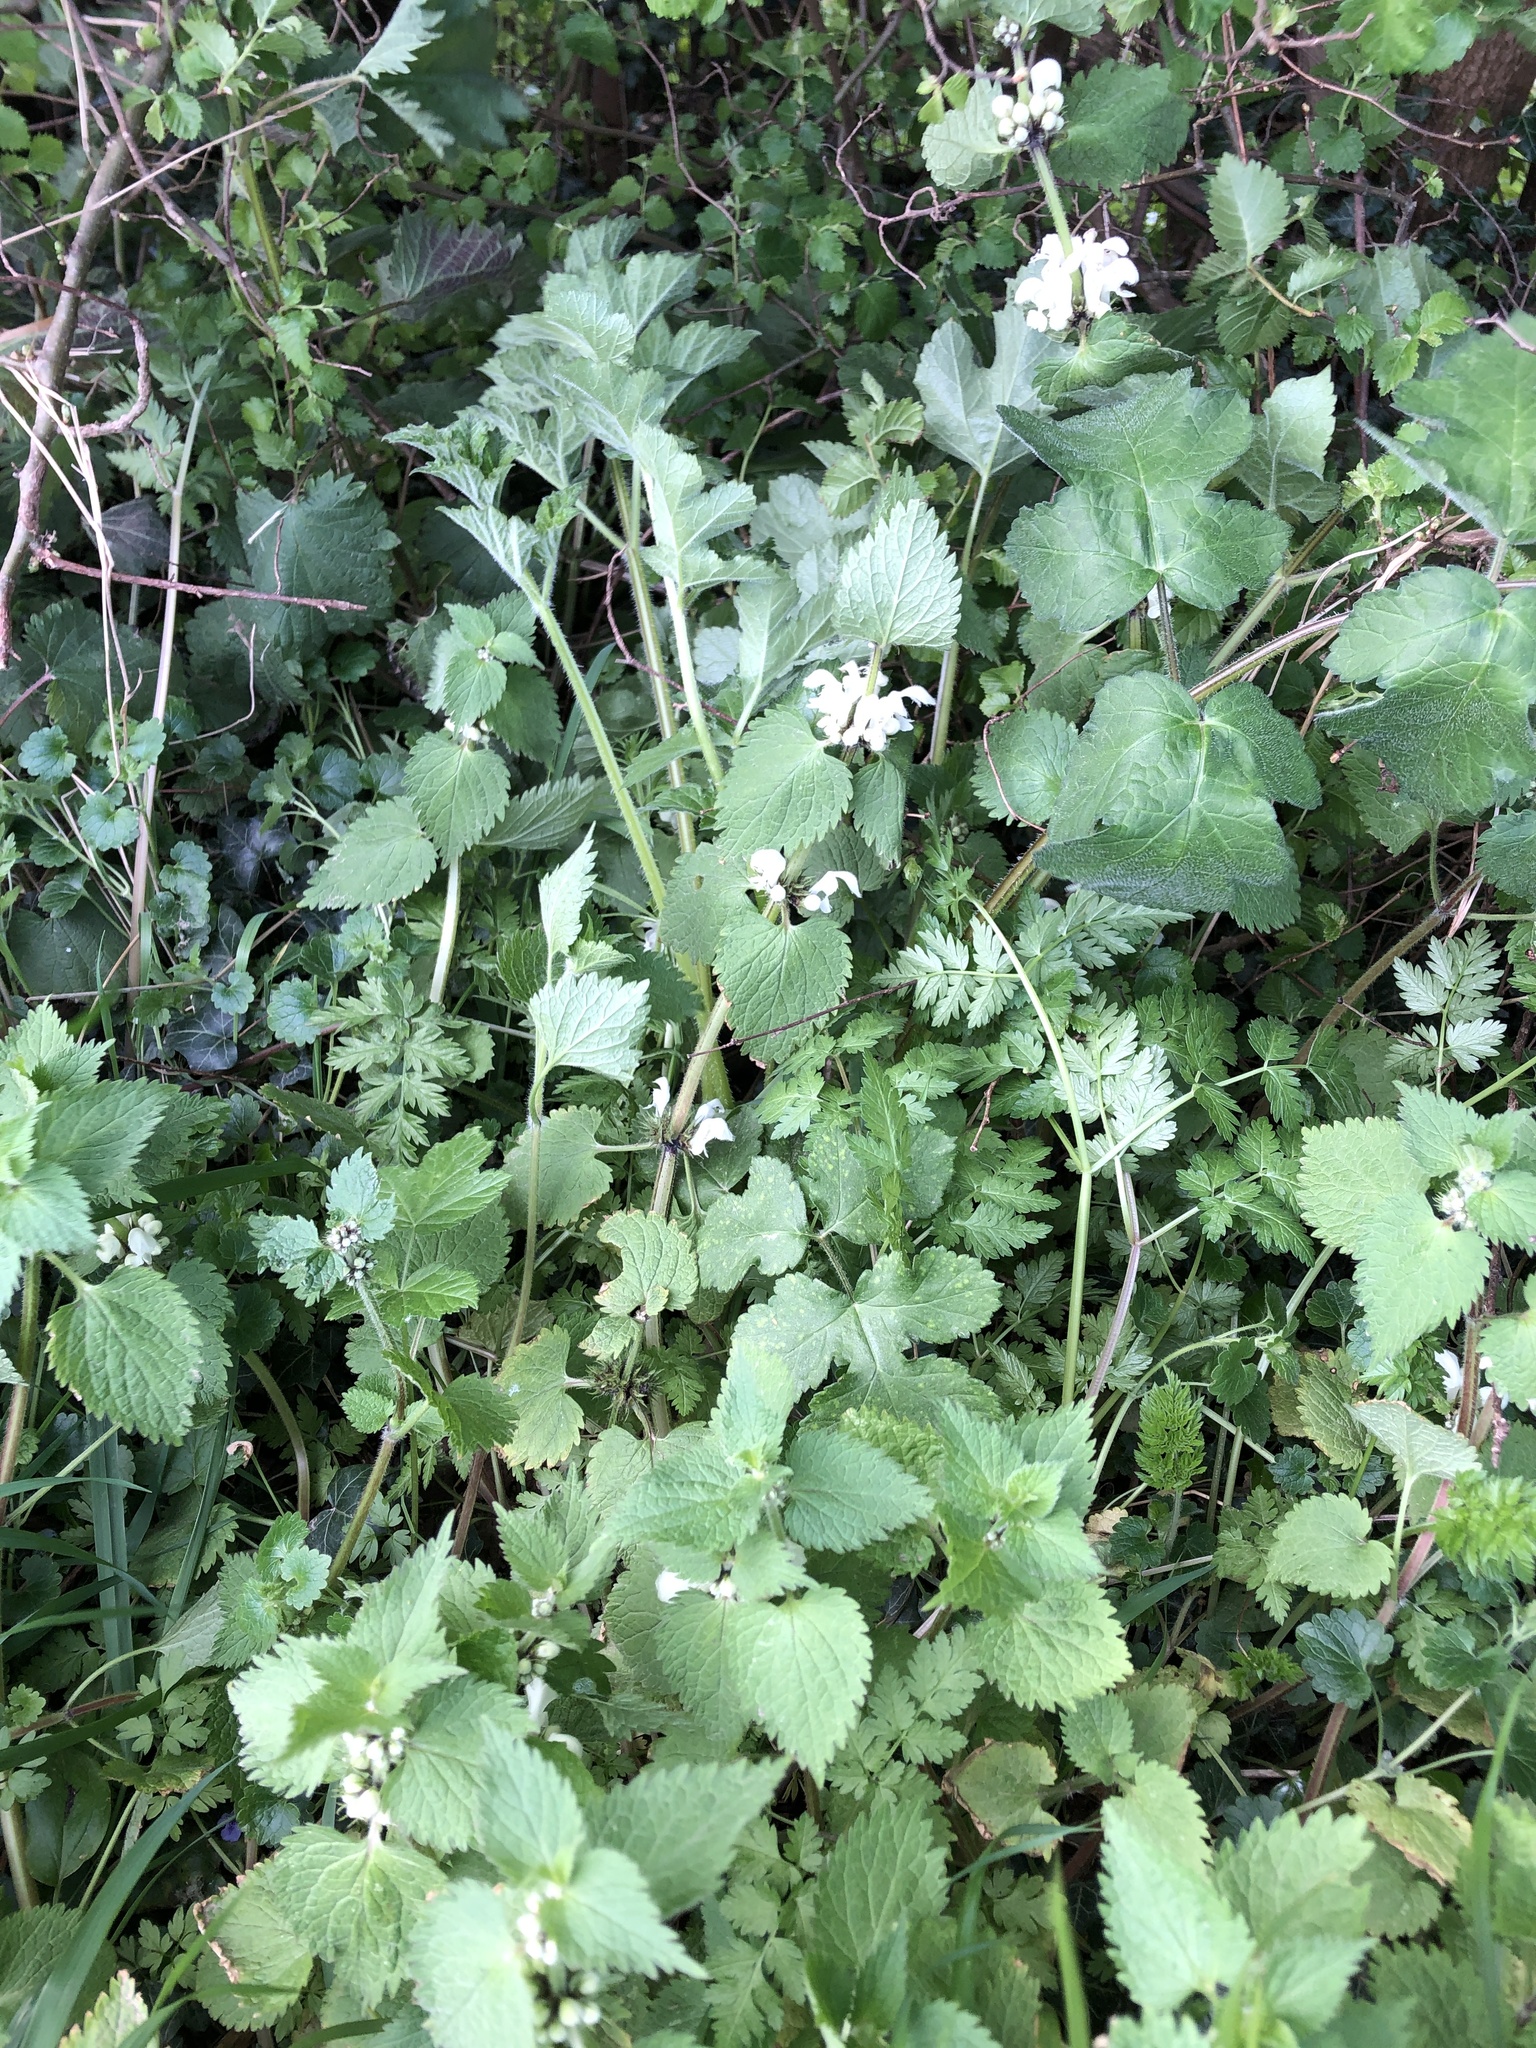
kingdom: Plantae
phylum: Tracheophyta
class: Magnoliopsida
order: Lamiales
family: Lamiaceae
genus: Lamium
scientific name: Lamium album
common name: White dead-nettle
